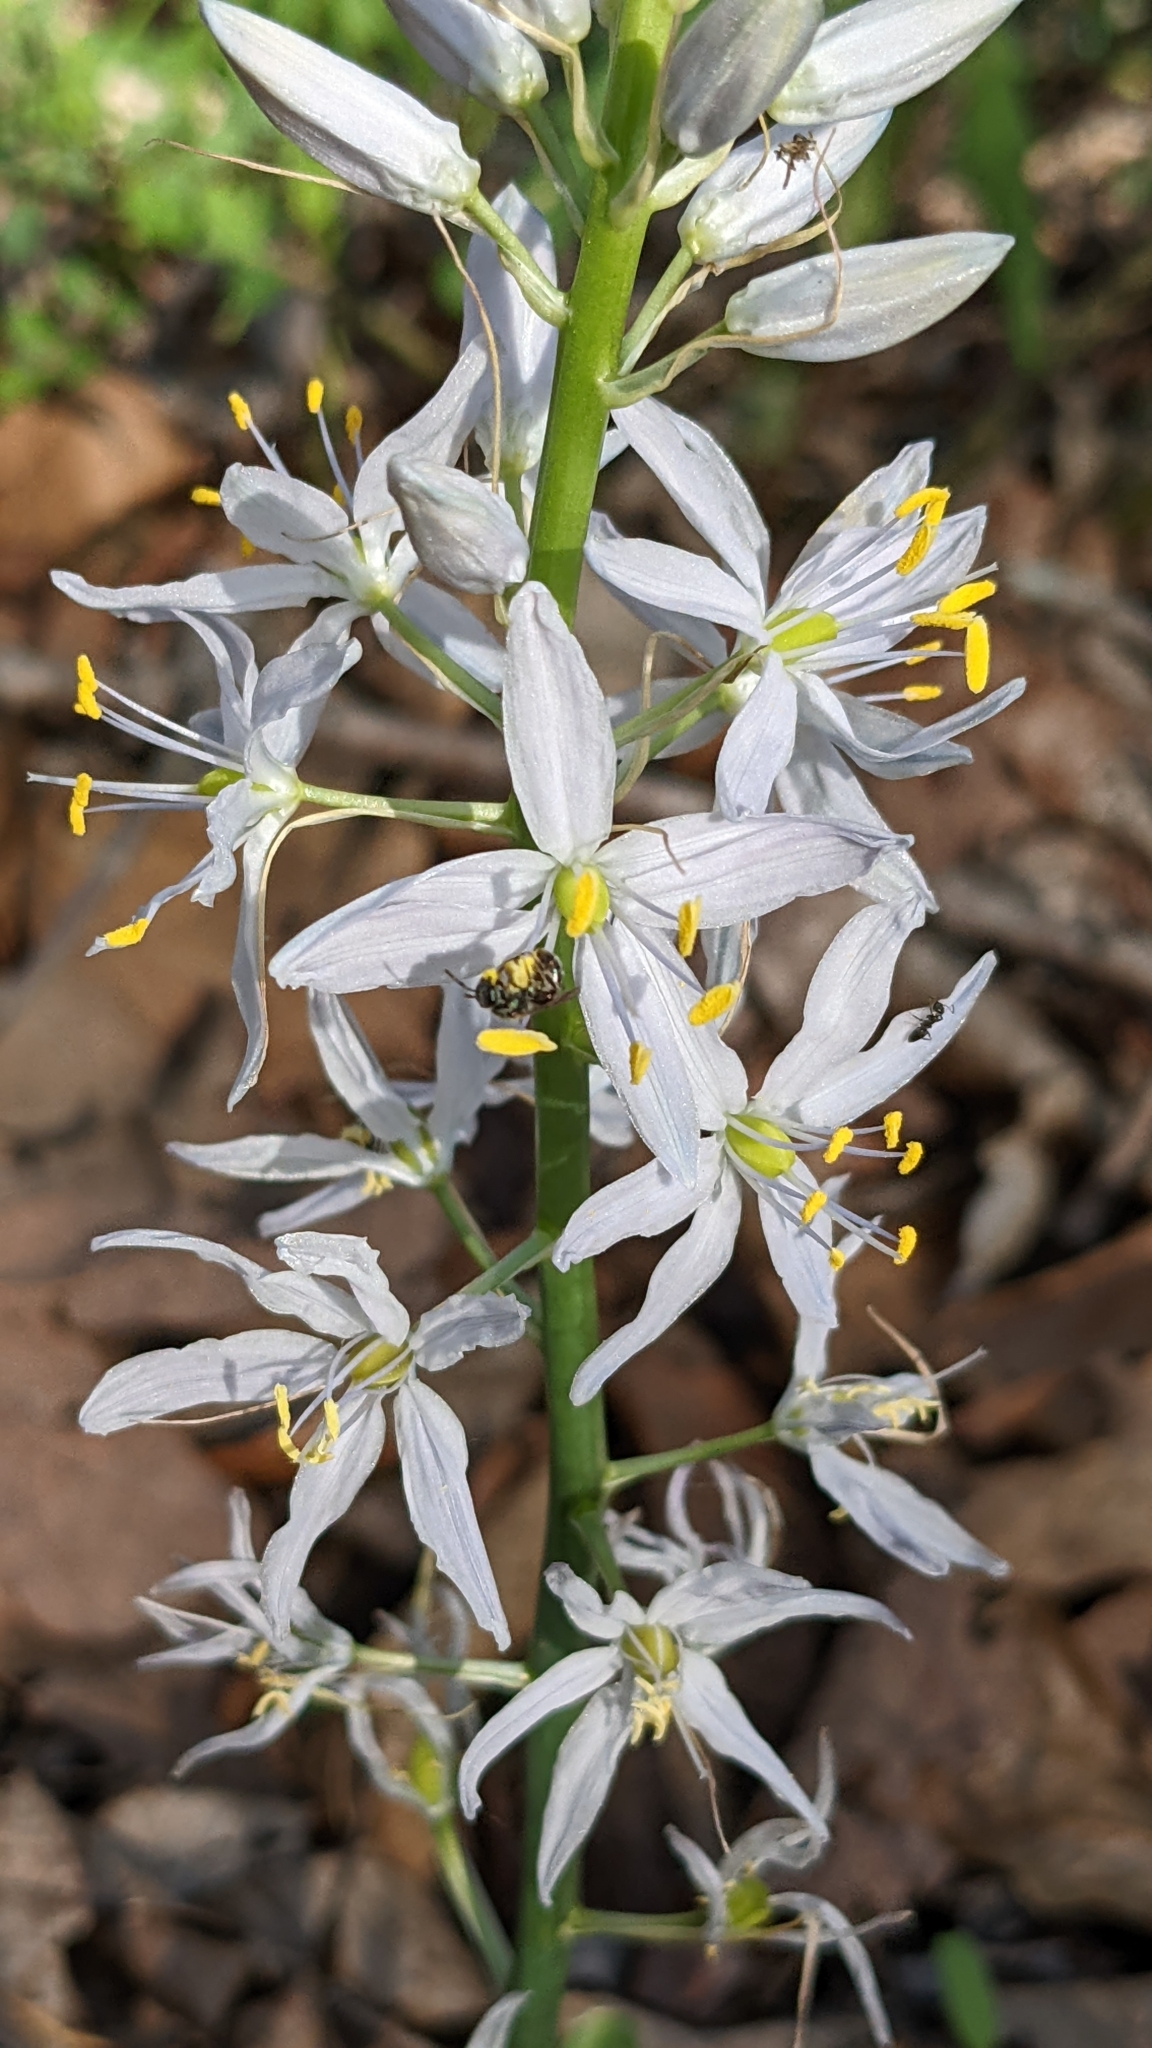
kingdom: Plantae
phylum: Tracheophyta
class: Liliopsida
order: Asparagales
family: Asparagaceae
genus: Camassia
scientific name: Camassia scilloides
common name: Wild hyacinth
